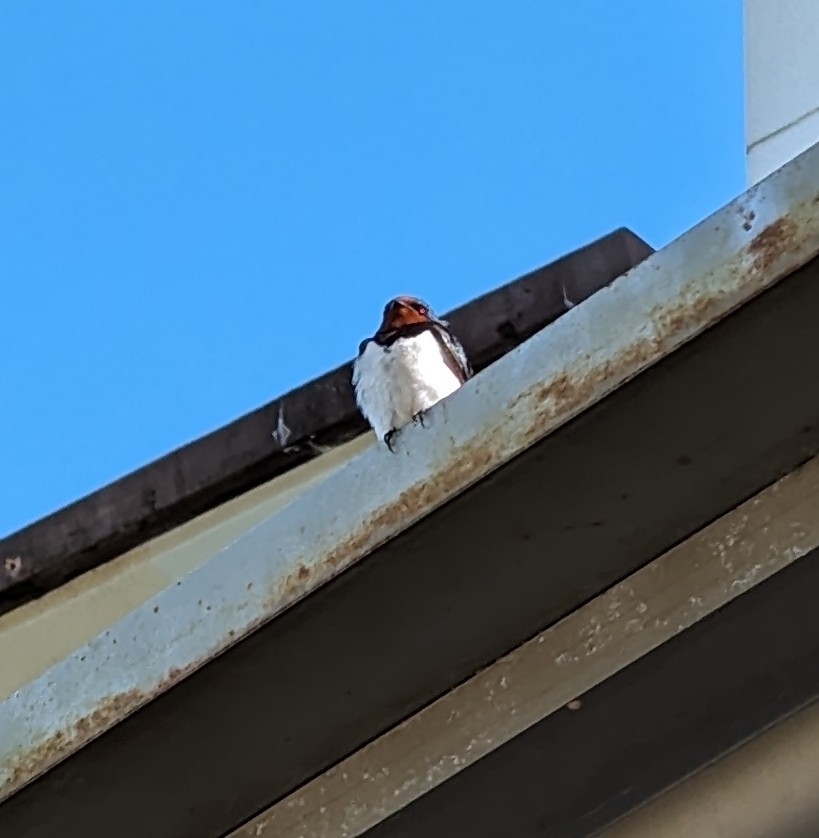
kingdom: Animalia
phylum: Chordata
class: Aves
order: Passeriformes
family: Hirundinidae
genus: Hirundo
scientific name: Hirundo rustica
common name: Barn swallow
